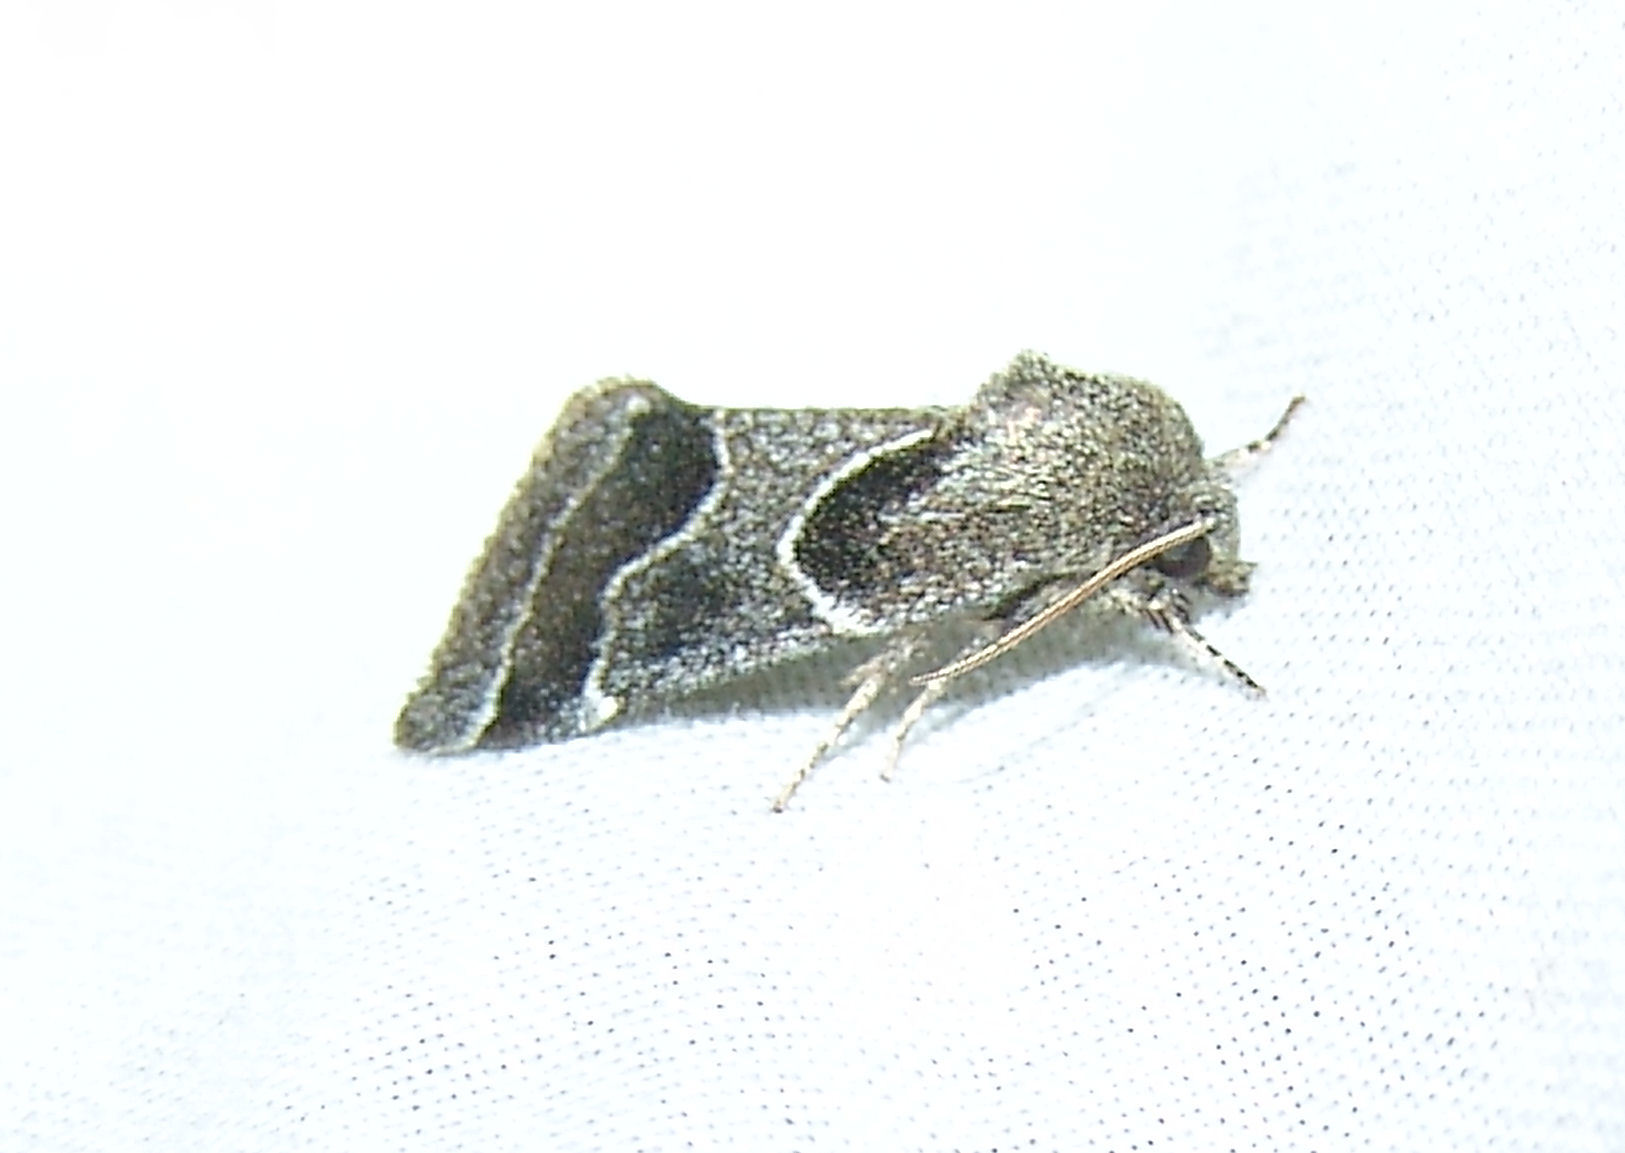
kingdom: Animalia
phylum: Arthropoda
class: Insecta
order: Lepidoptera
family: Noctuidae
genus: Schinia
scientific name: Schinia arcigera
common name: Arcigera flower moth
